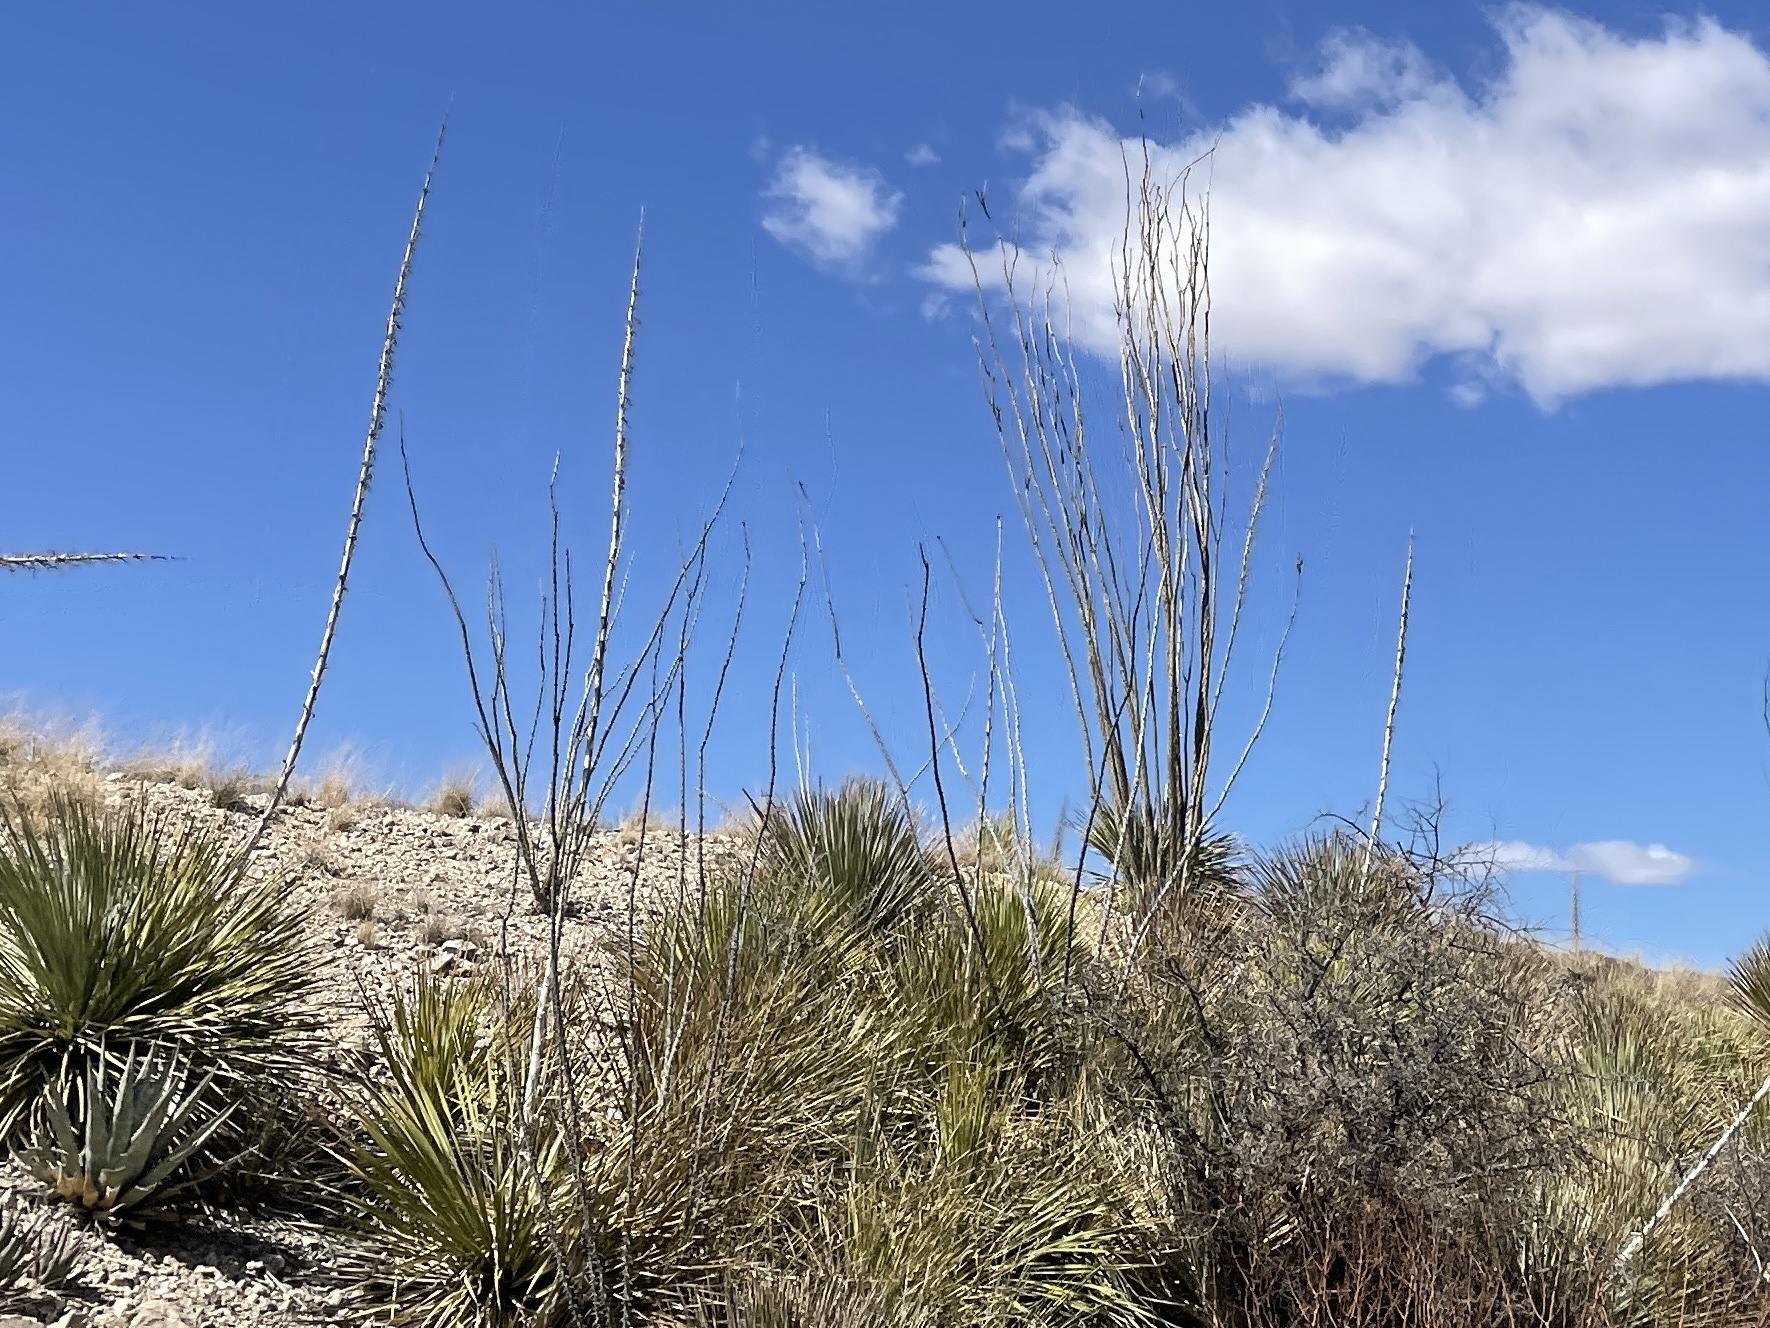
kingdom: Plantae
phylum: Tracheophyta
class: Magnoliopsida
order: Ericales
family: Fouquieriaceae
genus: Fouquieria
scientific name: Fouquieria splendens
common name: Vine-cactus
